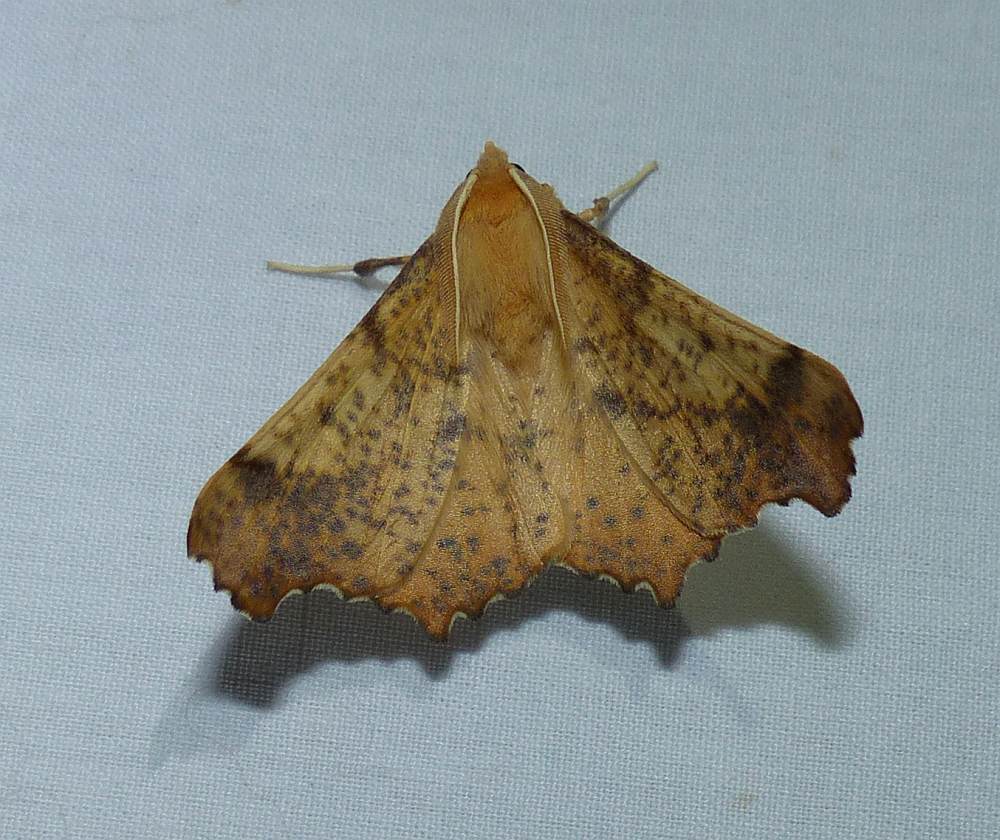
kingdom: Animalia
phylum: Arthropoda
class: Insecta
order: Lepidoptera
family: Geometridae
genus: Ennomos
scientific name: Ennomos magnaria
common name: Maple spanworm
